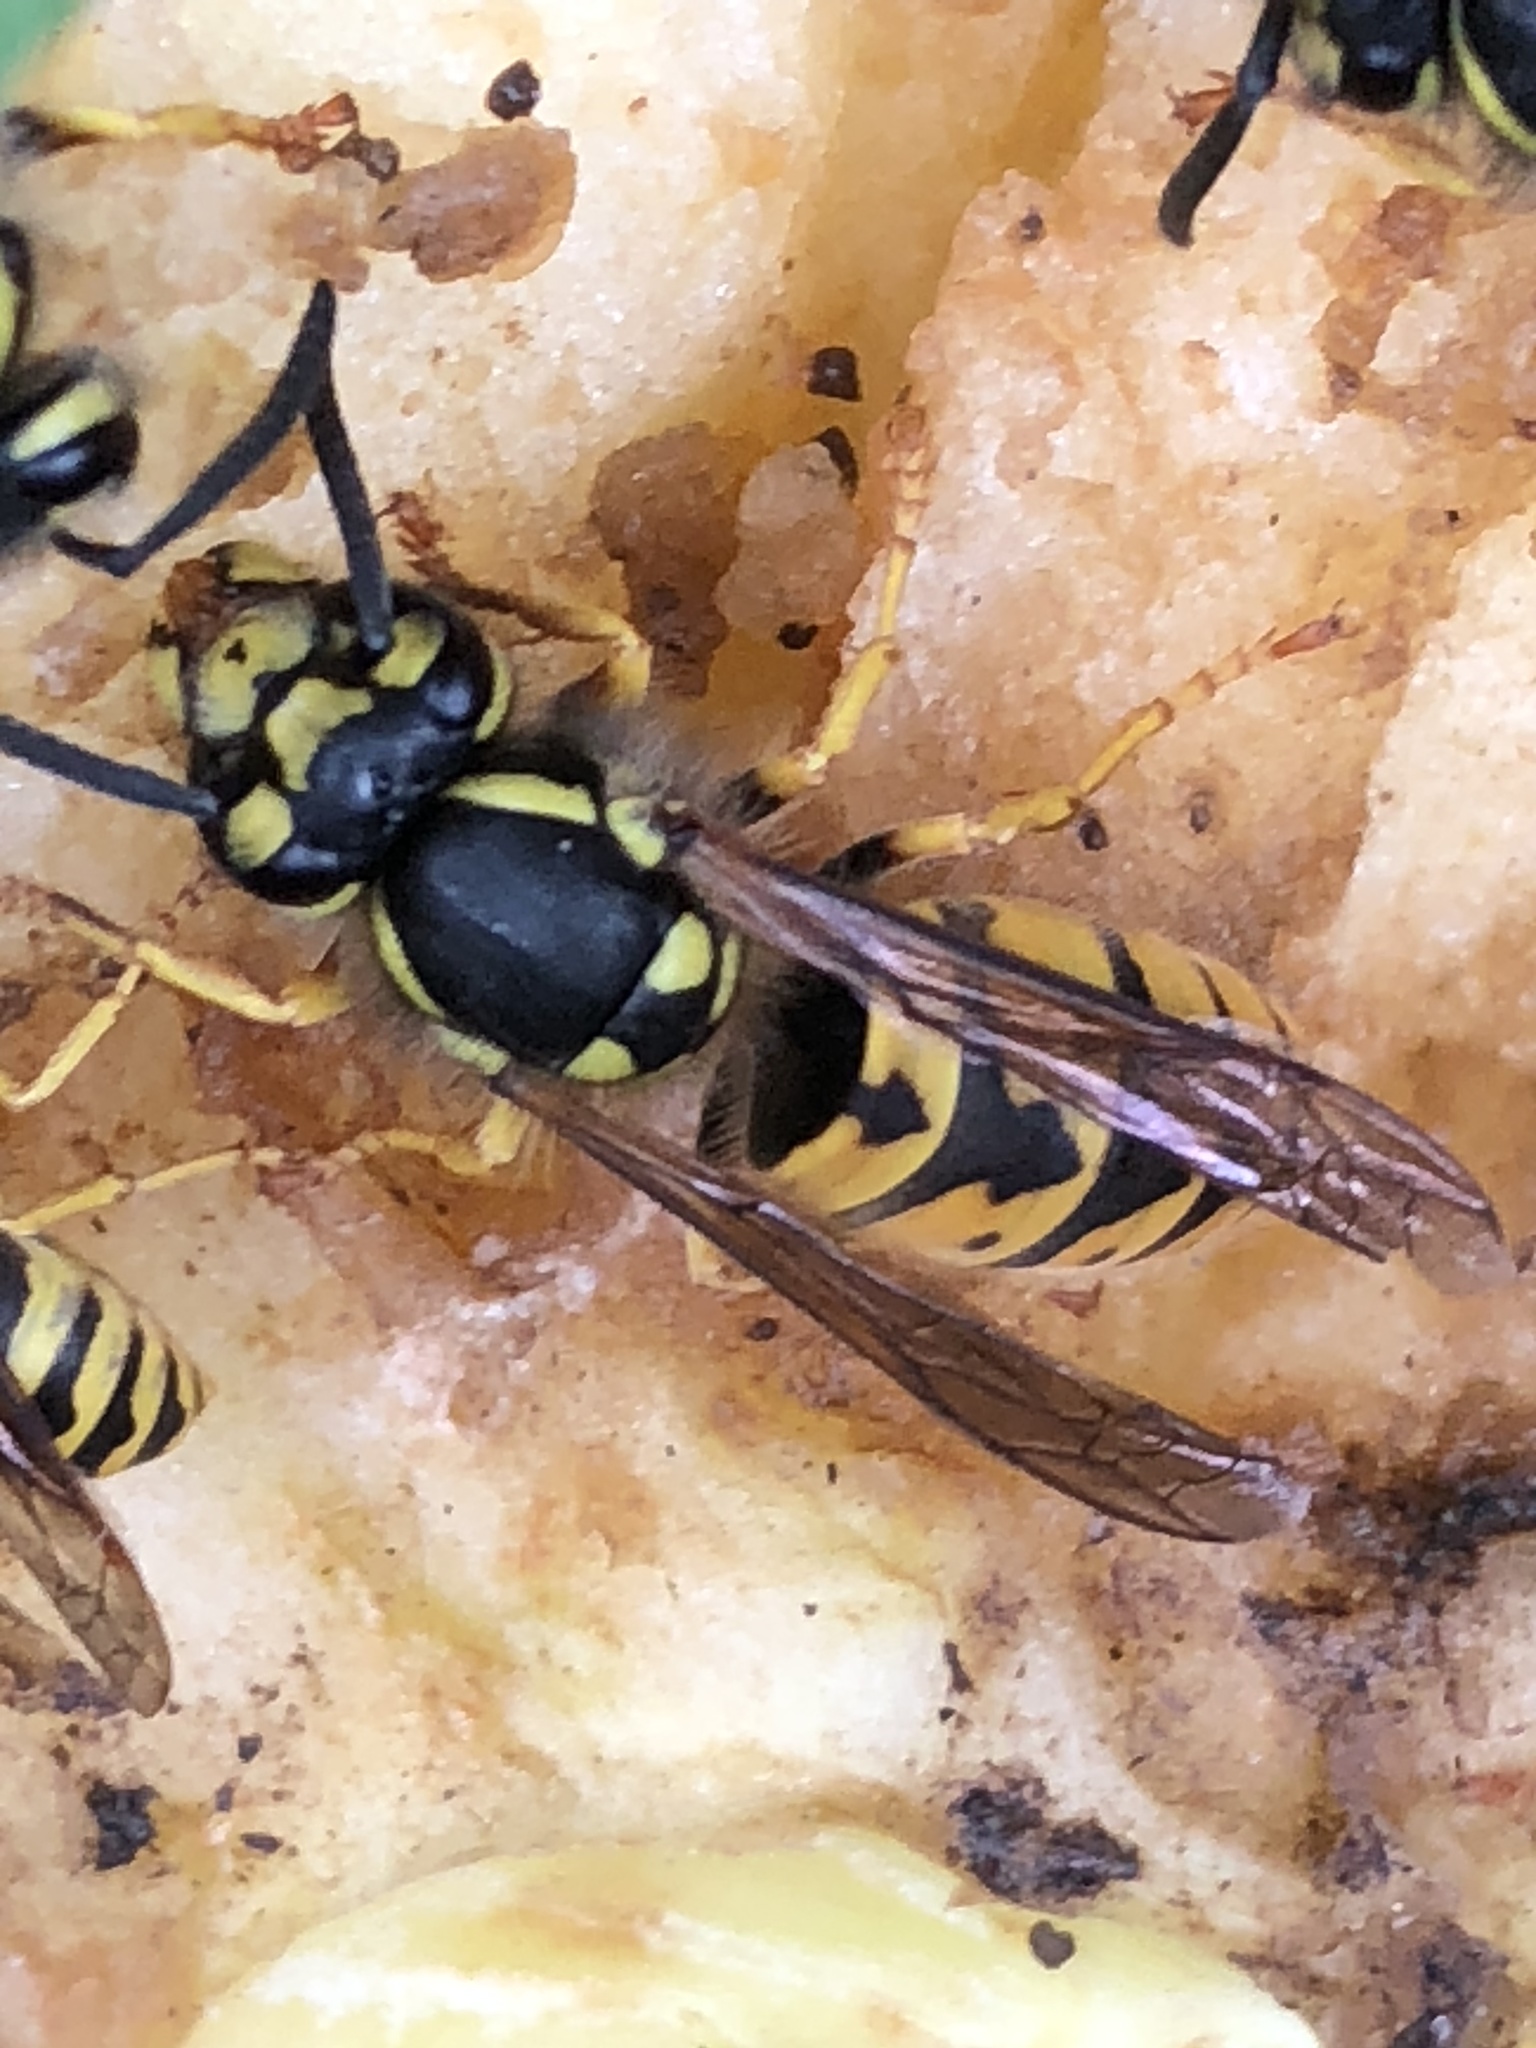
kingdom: Animalia
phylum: Arthropoda
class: Insecta
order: Hymenoptera
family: Vespidae
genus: Vespula
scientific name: Vespula germanica
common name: German wasp
